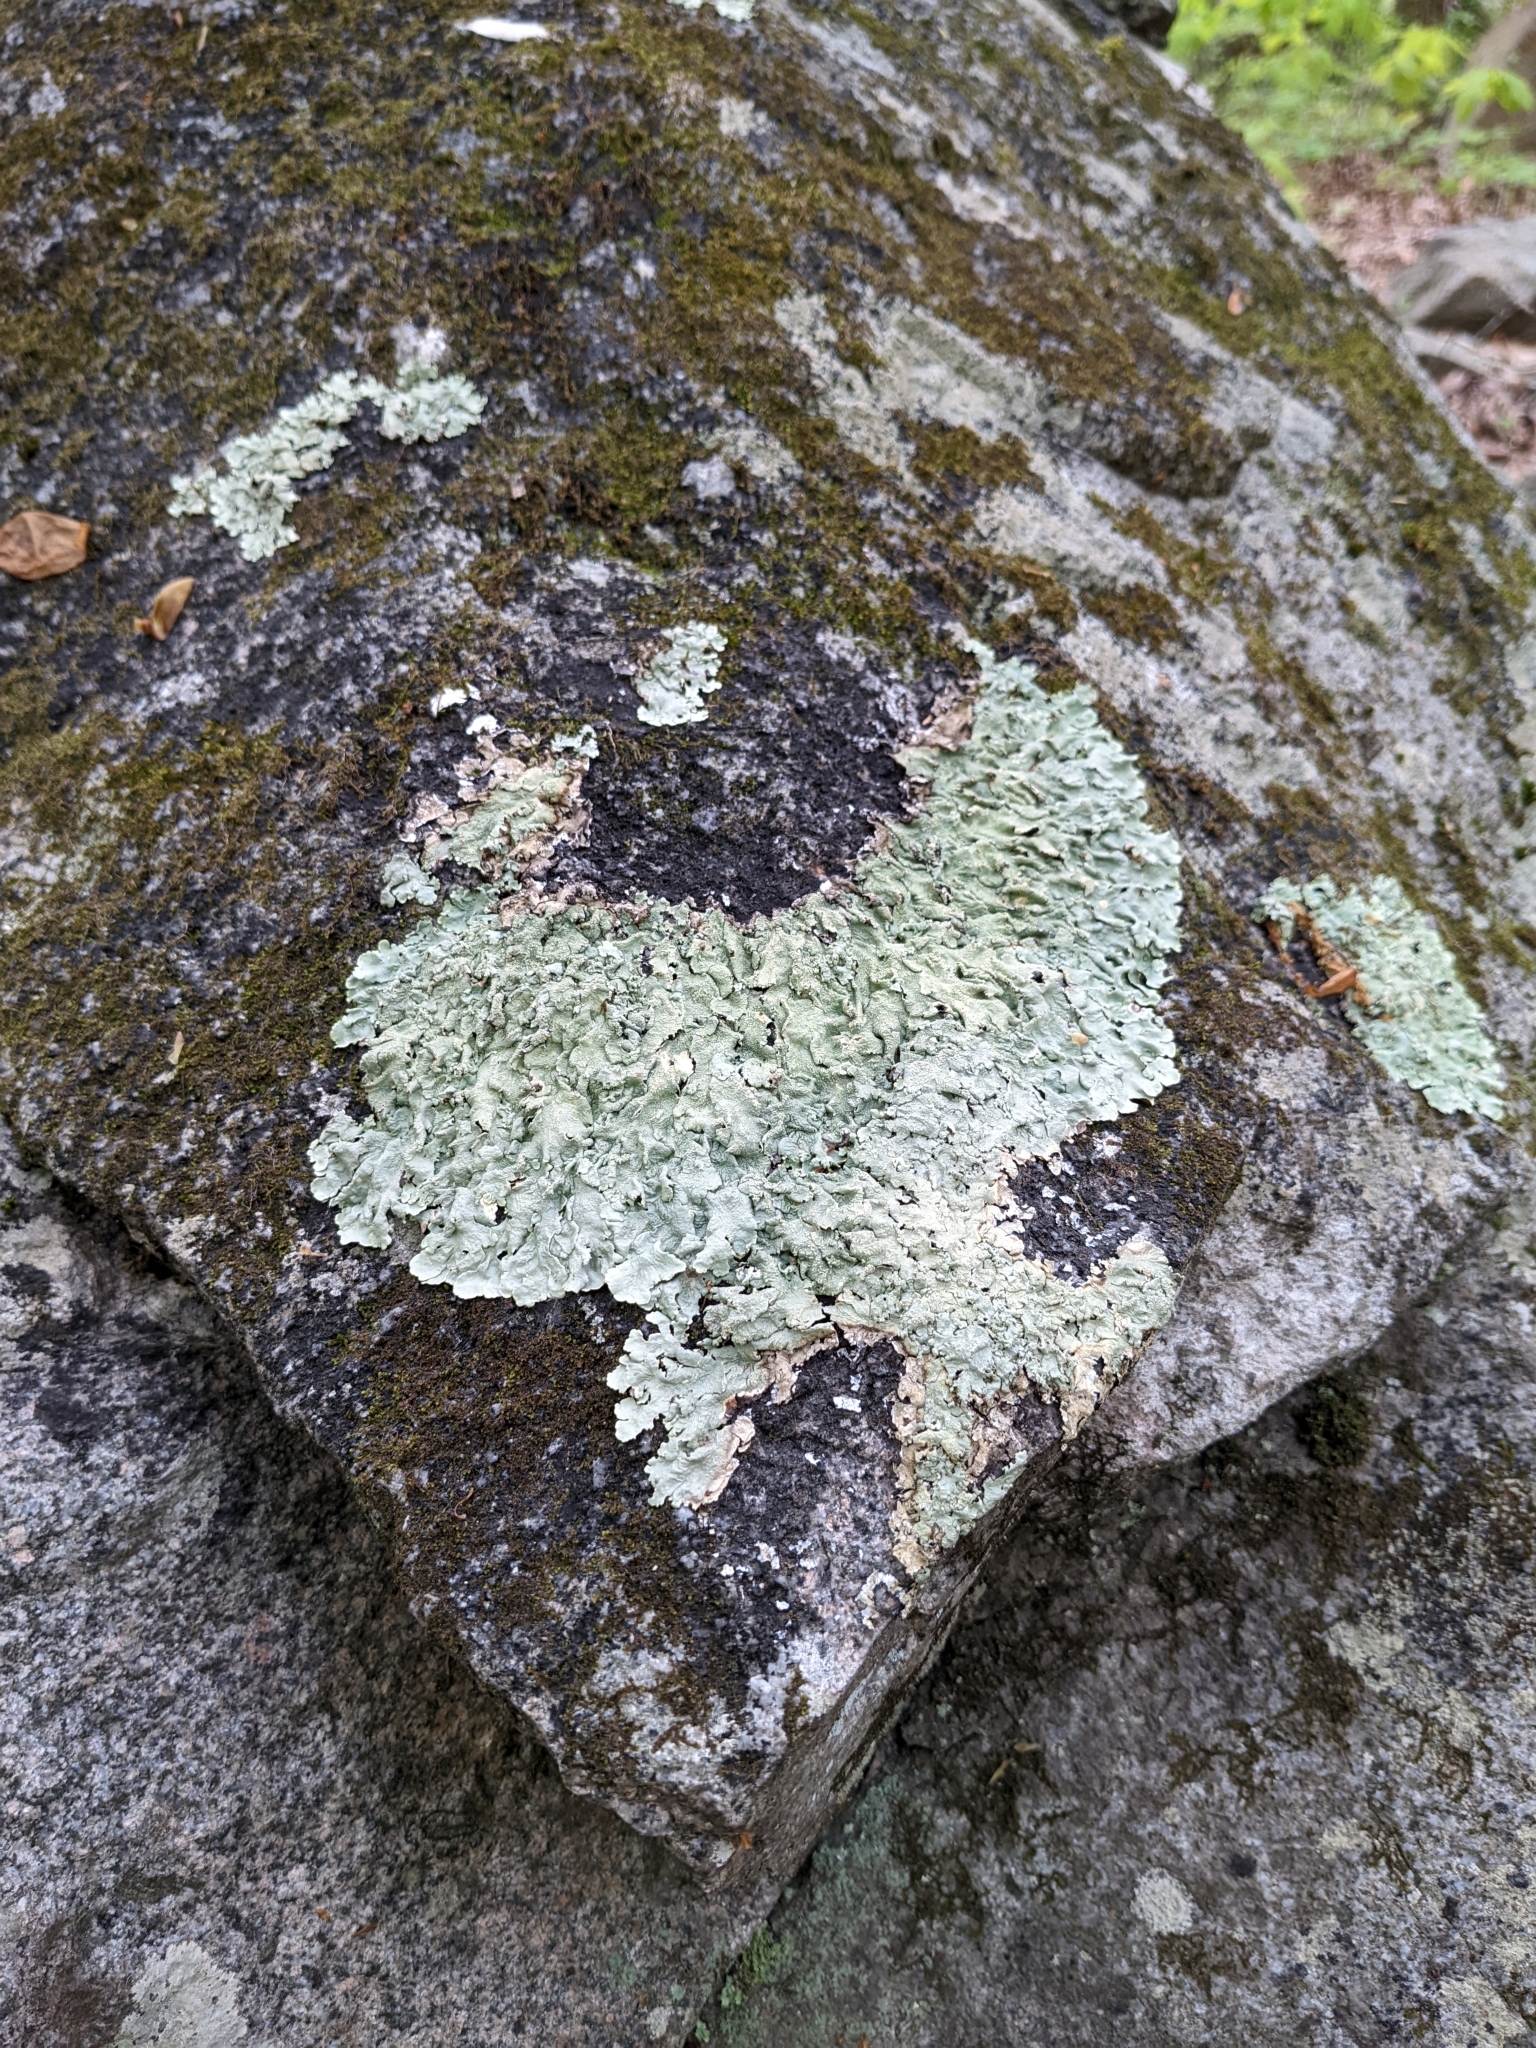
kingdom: Fungi
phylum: Ascomycota
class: Lecanoromycetes
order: Lecanorales
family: Parmeliaceae
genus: Flavoparmelia
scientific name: Flavoparmelia baltimorensis
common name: Rock greenshield
